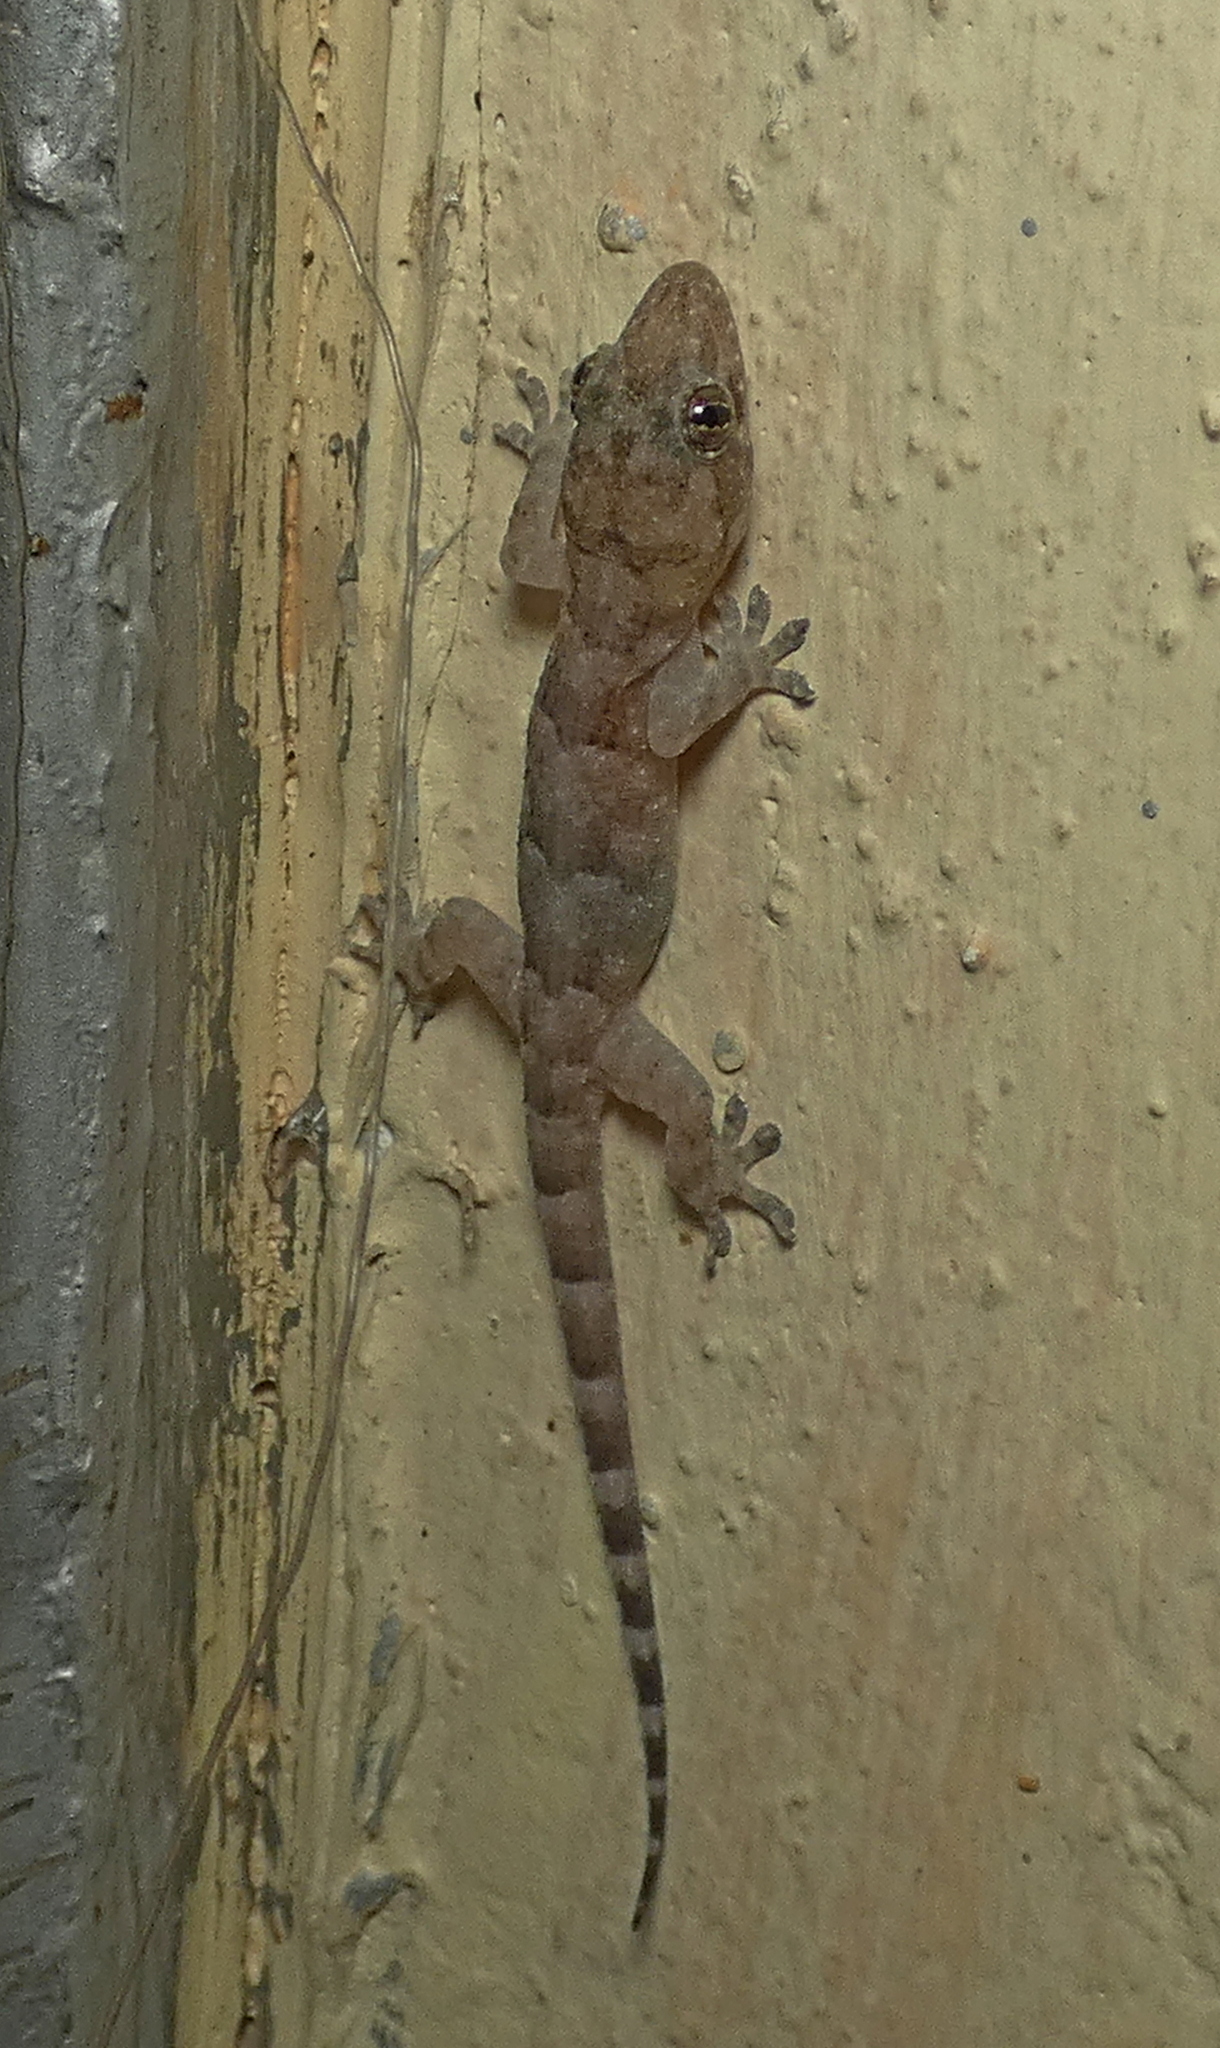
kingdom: Animalia
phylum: Chordata
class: Squamata
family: Gekkonidae
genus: Hemidactylus
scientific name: Hemidactylus mabouia
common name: House gecko
